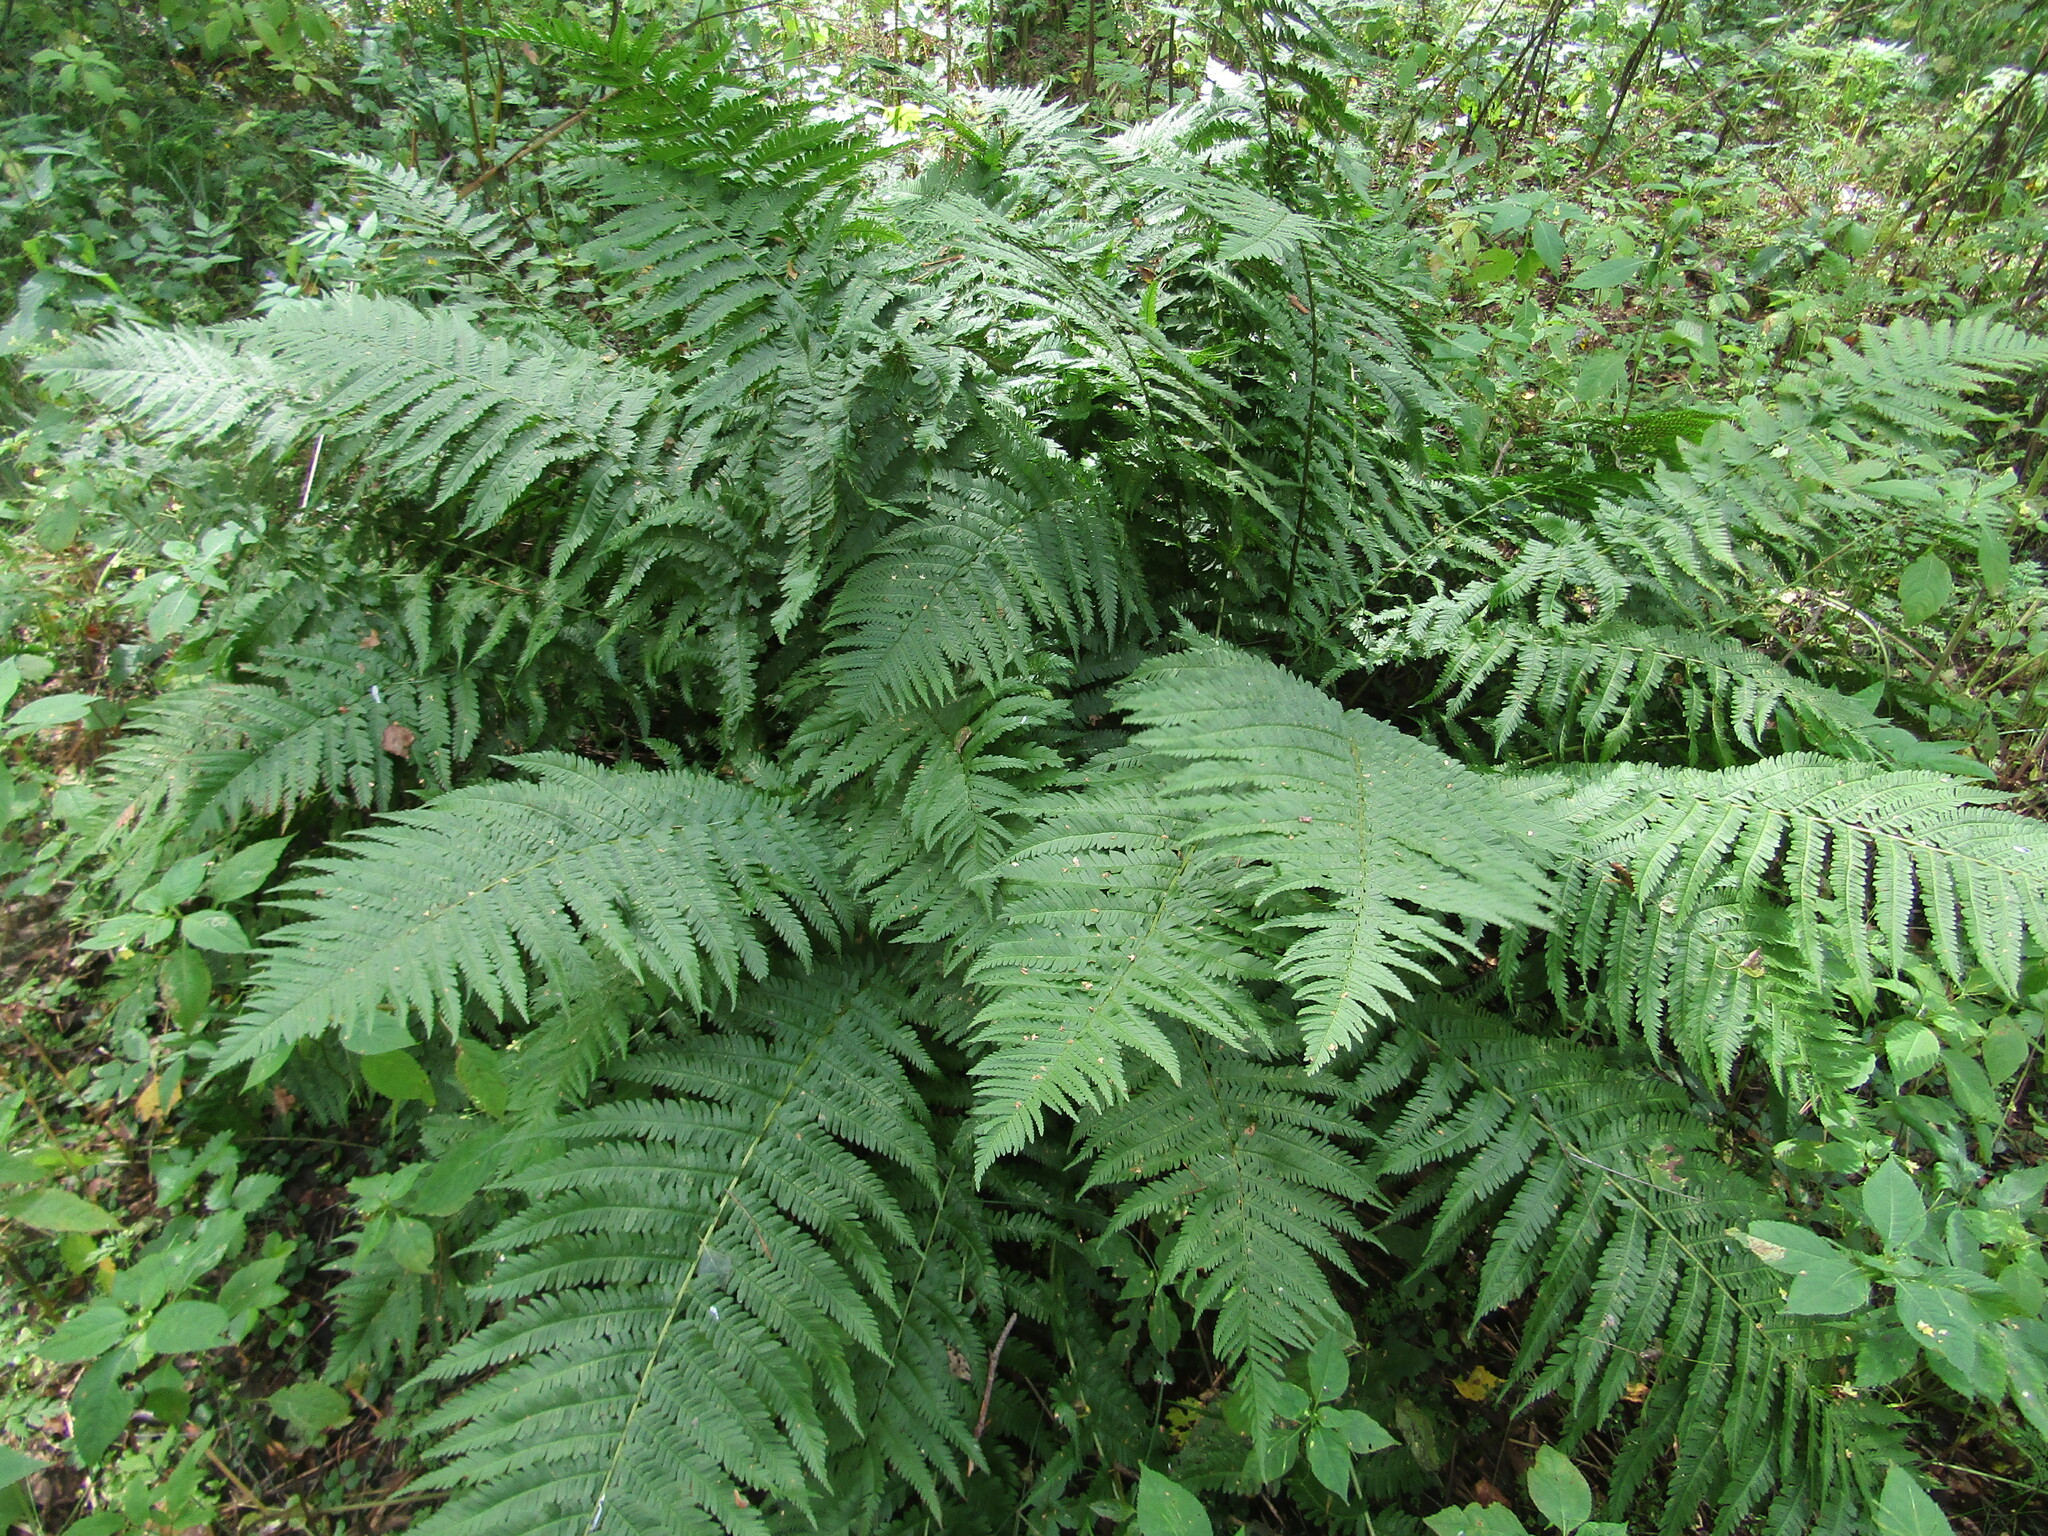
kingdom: Plantae
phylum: Tracheophyta
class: Polypodiopsida
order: Polypodiales
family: Dryopteridaceae
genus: Dryopteris
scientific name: Dryopteris filix-mas
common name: Male fern
